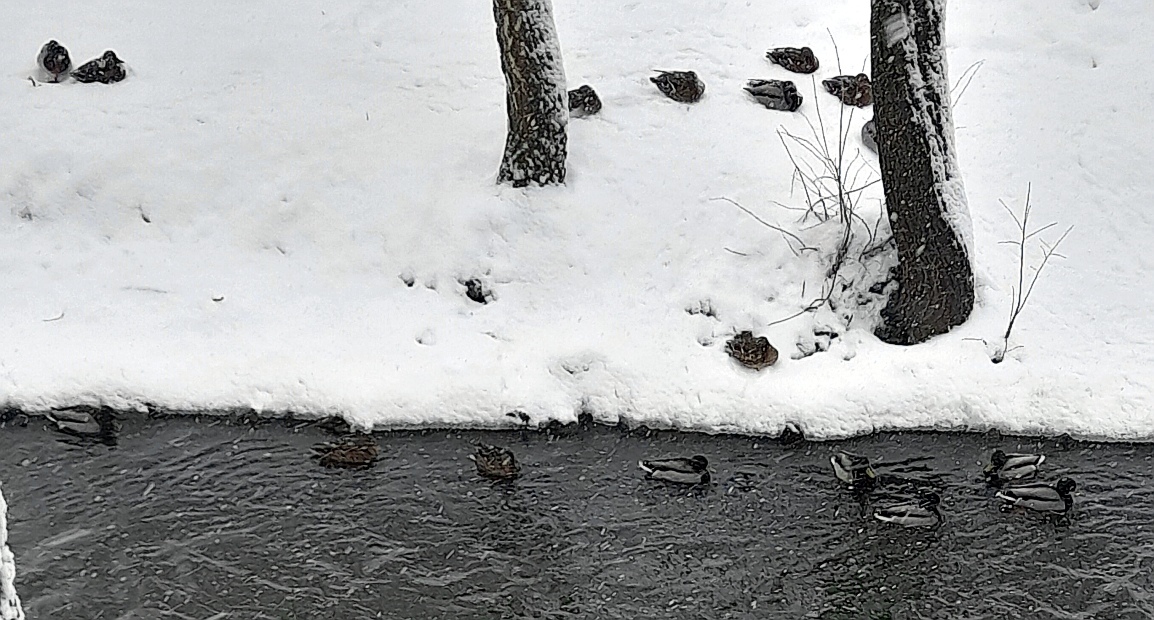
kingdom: Animalia
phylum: Chordata
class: Aves
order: Anseriformes
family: Anatidae
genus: Anas
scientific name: Anas platyrhynchos
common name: Mallard
